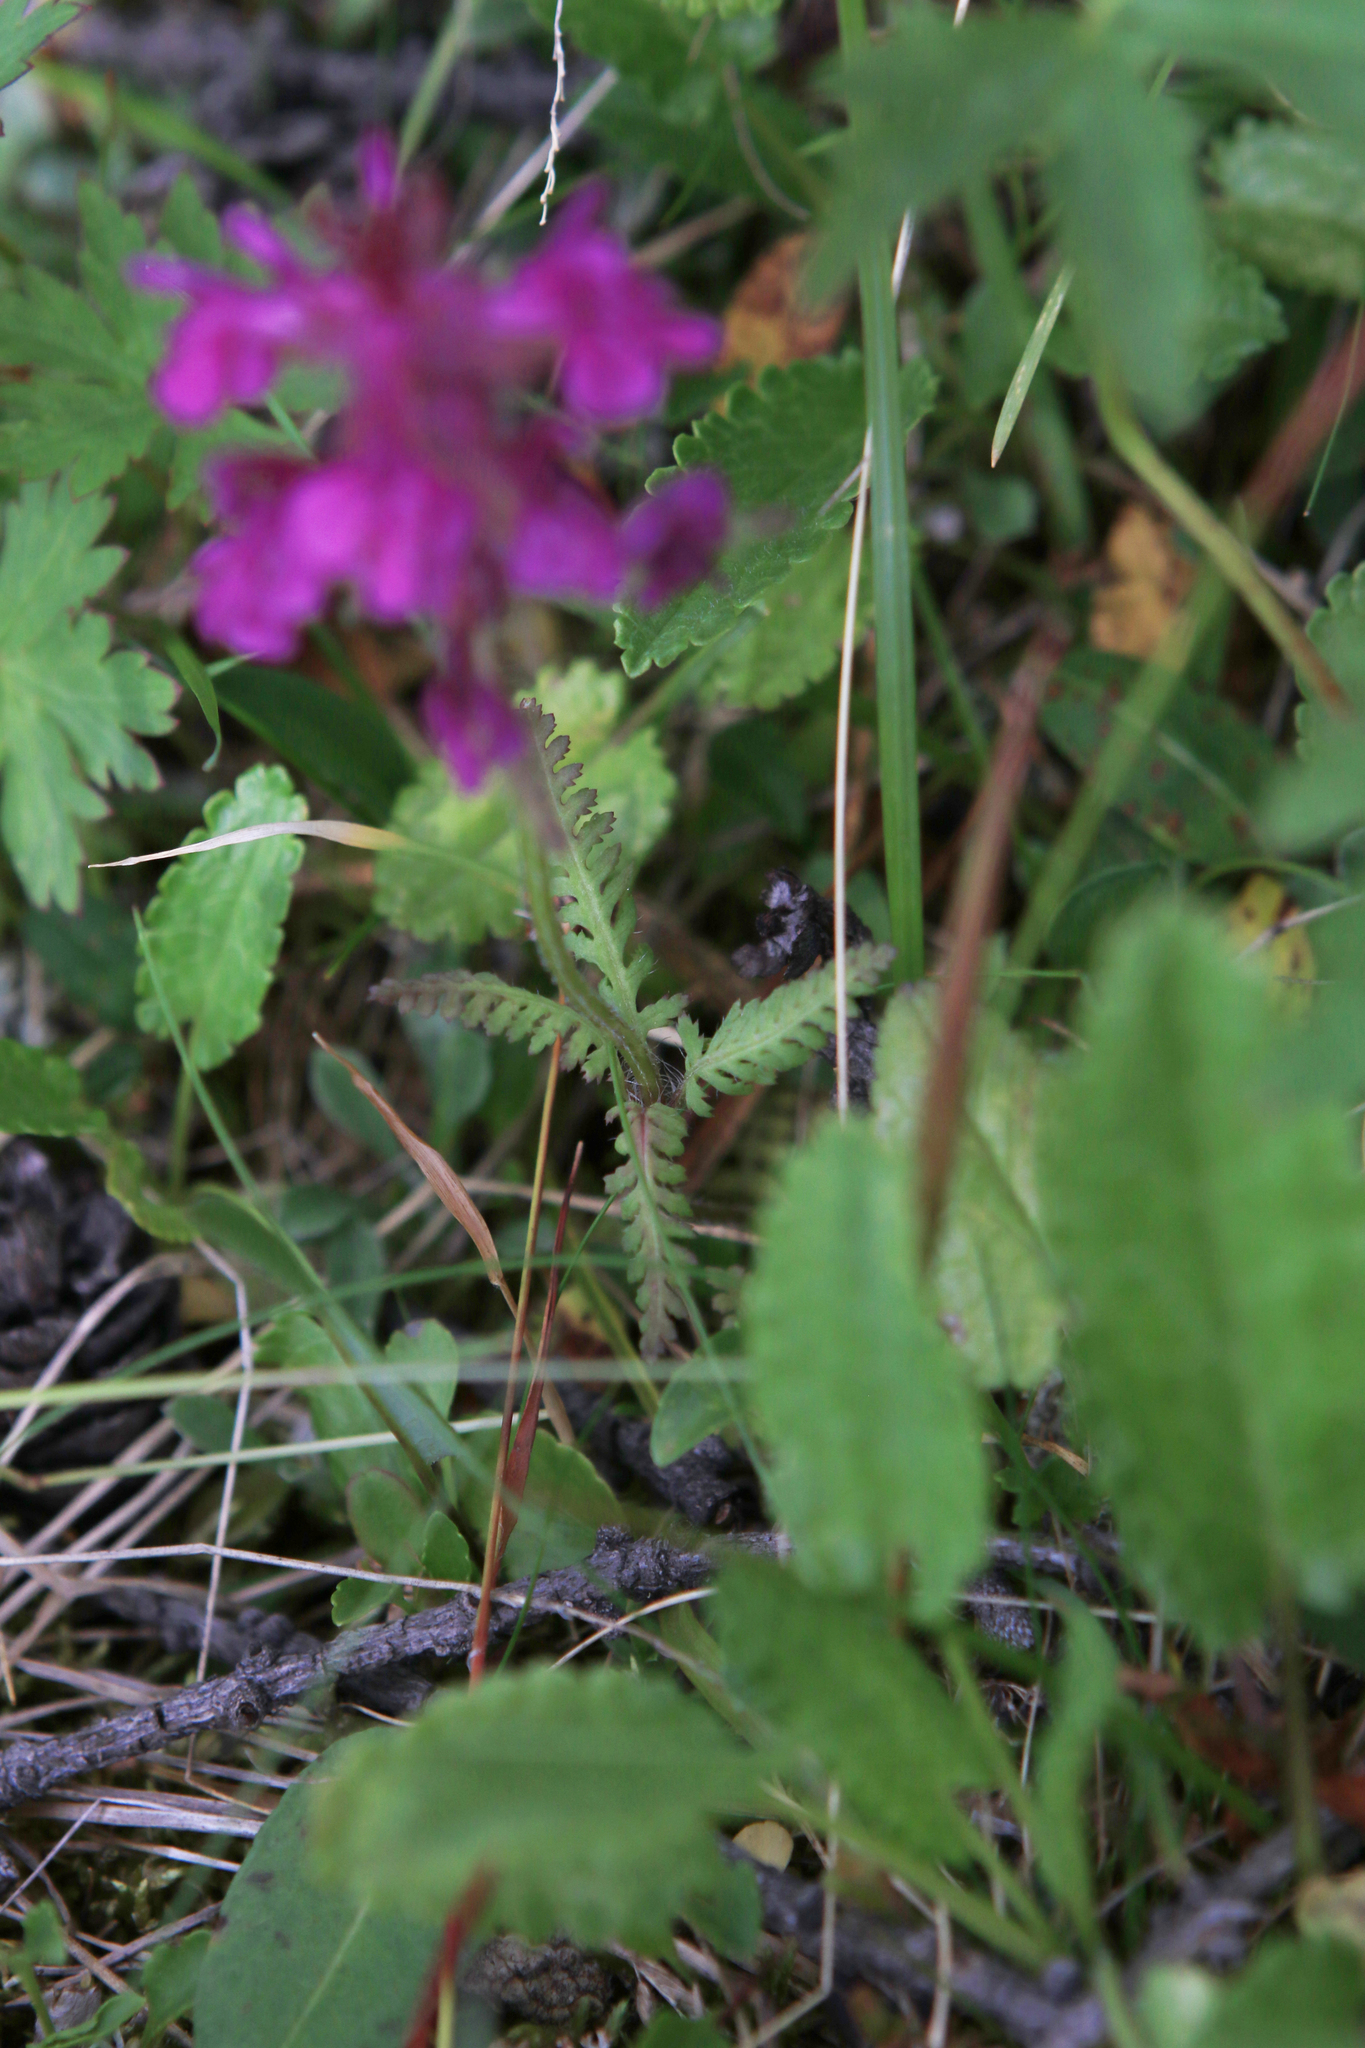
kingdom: Plantae
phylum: Tracheophyta
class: Magnoliopsida
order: Lamiales
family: Orobanchaceae
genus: Pedicularis
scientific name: Pedicularis verticillata
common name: Whorled lousewort
